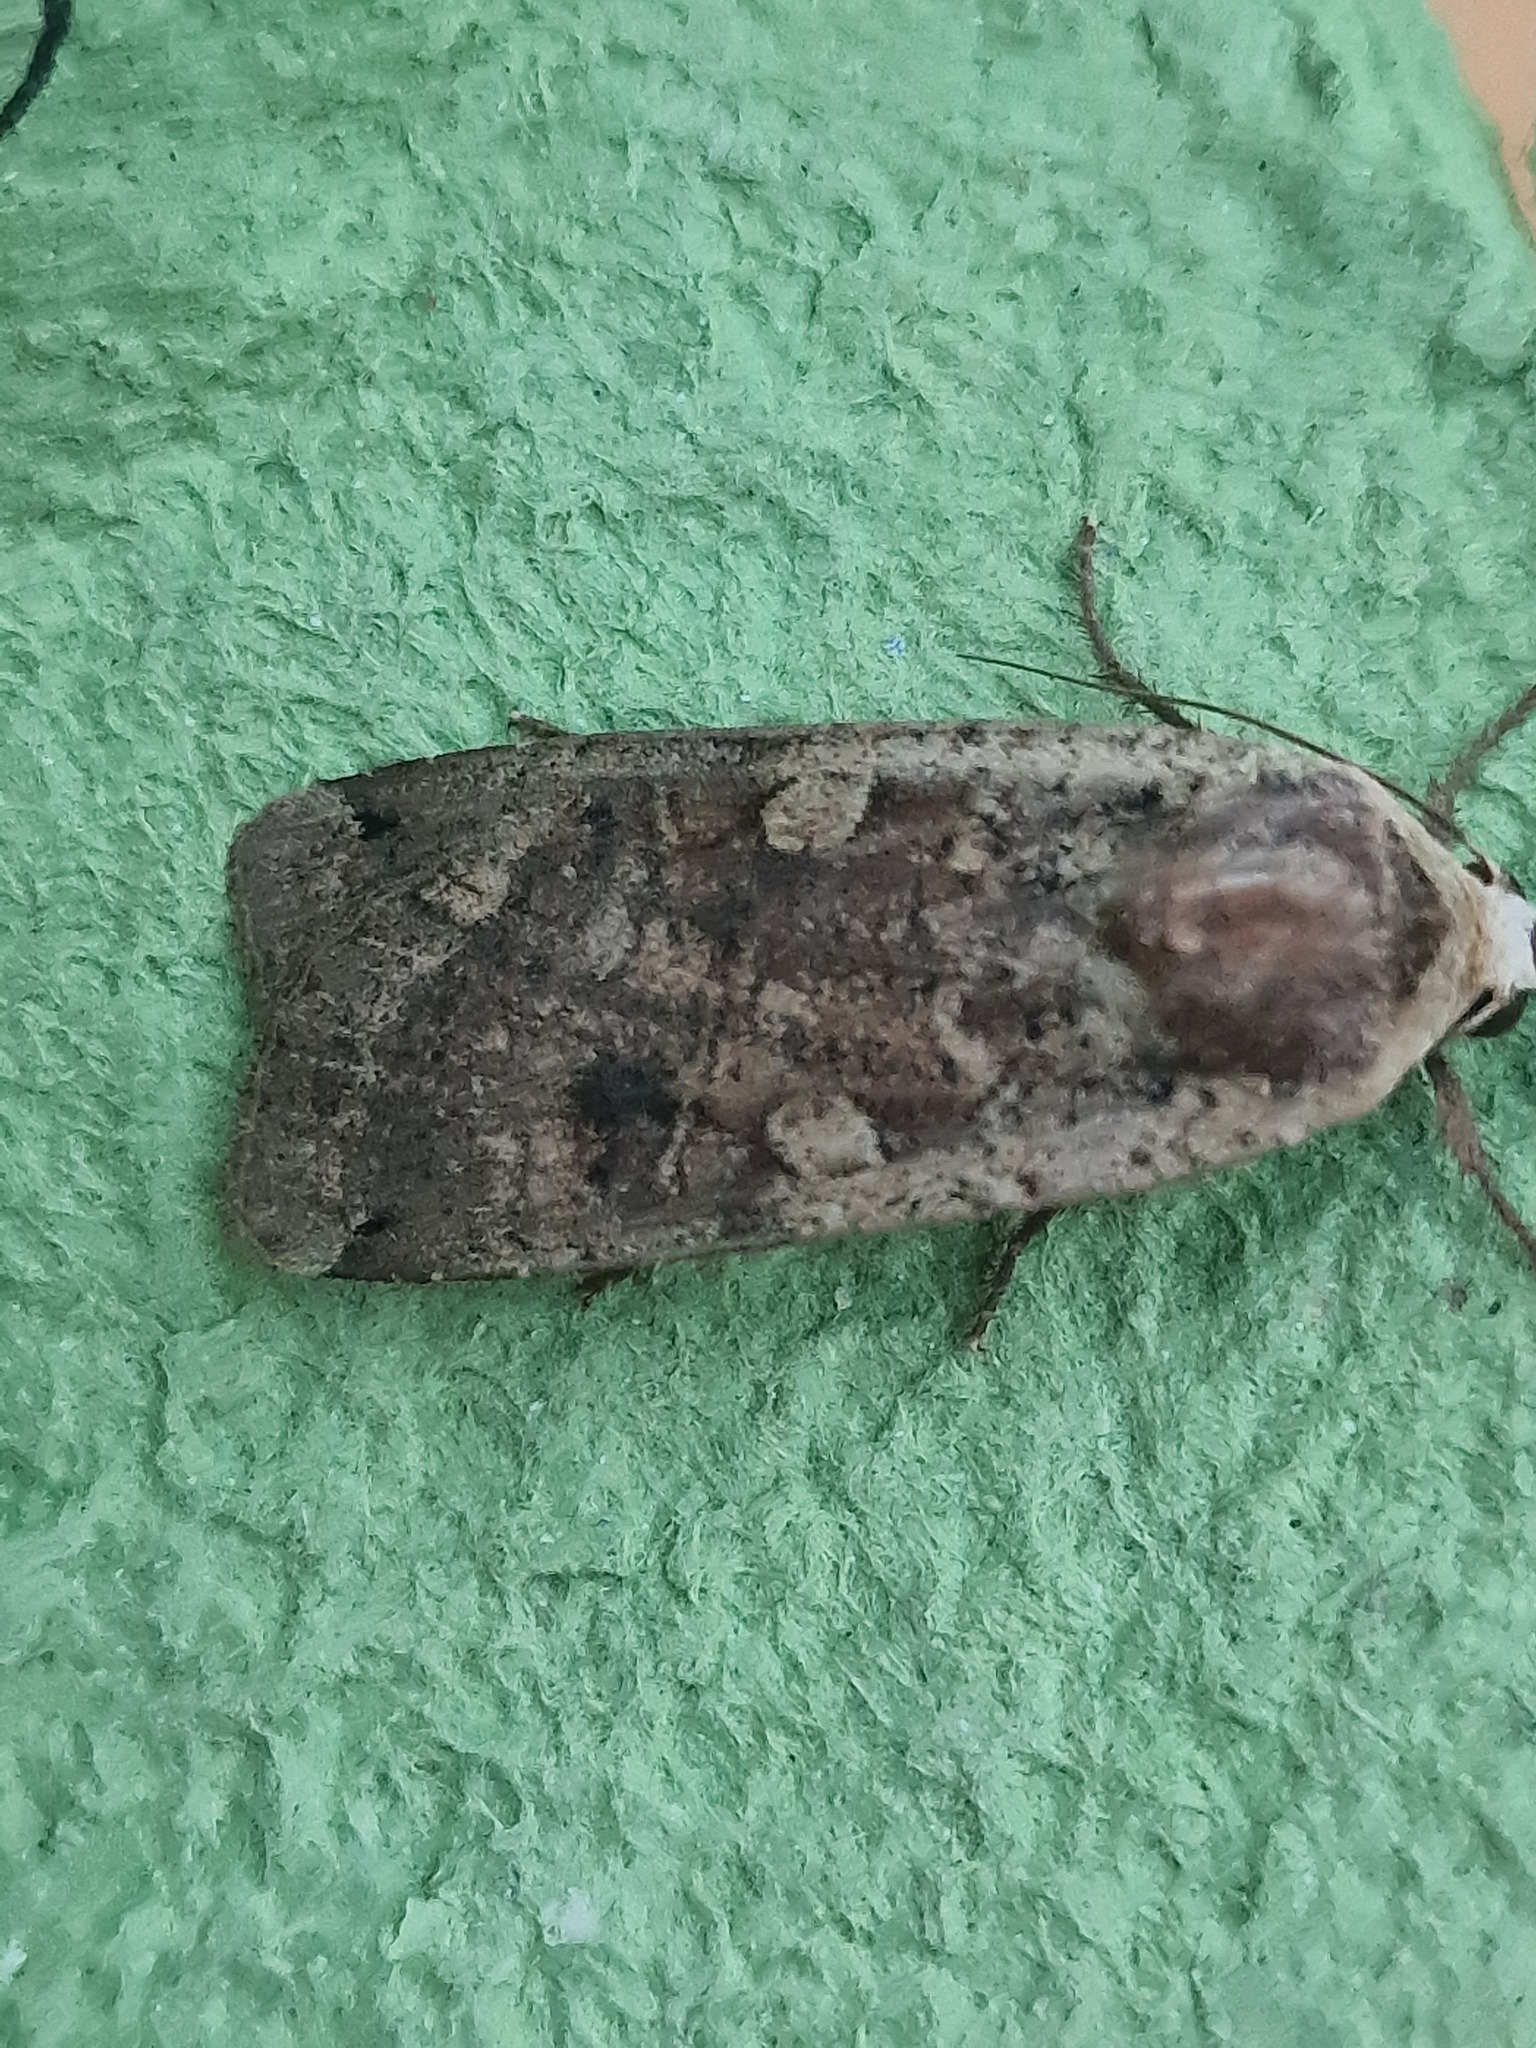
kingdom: Animalia
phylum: Arthropoda
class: Insecta
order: Lepidoptera
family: Noctuidae
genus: Noctua
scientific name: Noctua pronuba
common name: Large yellow underwing
